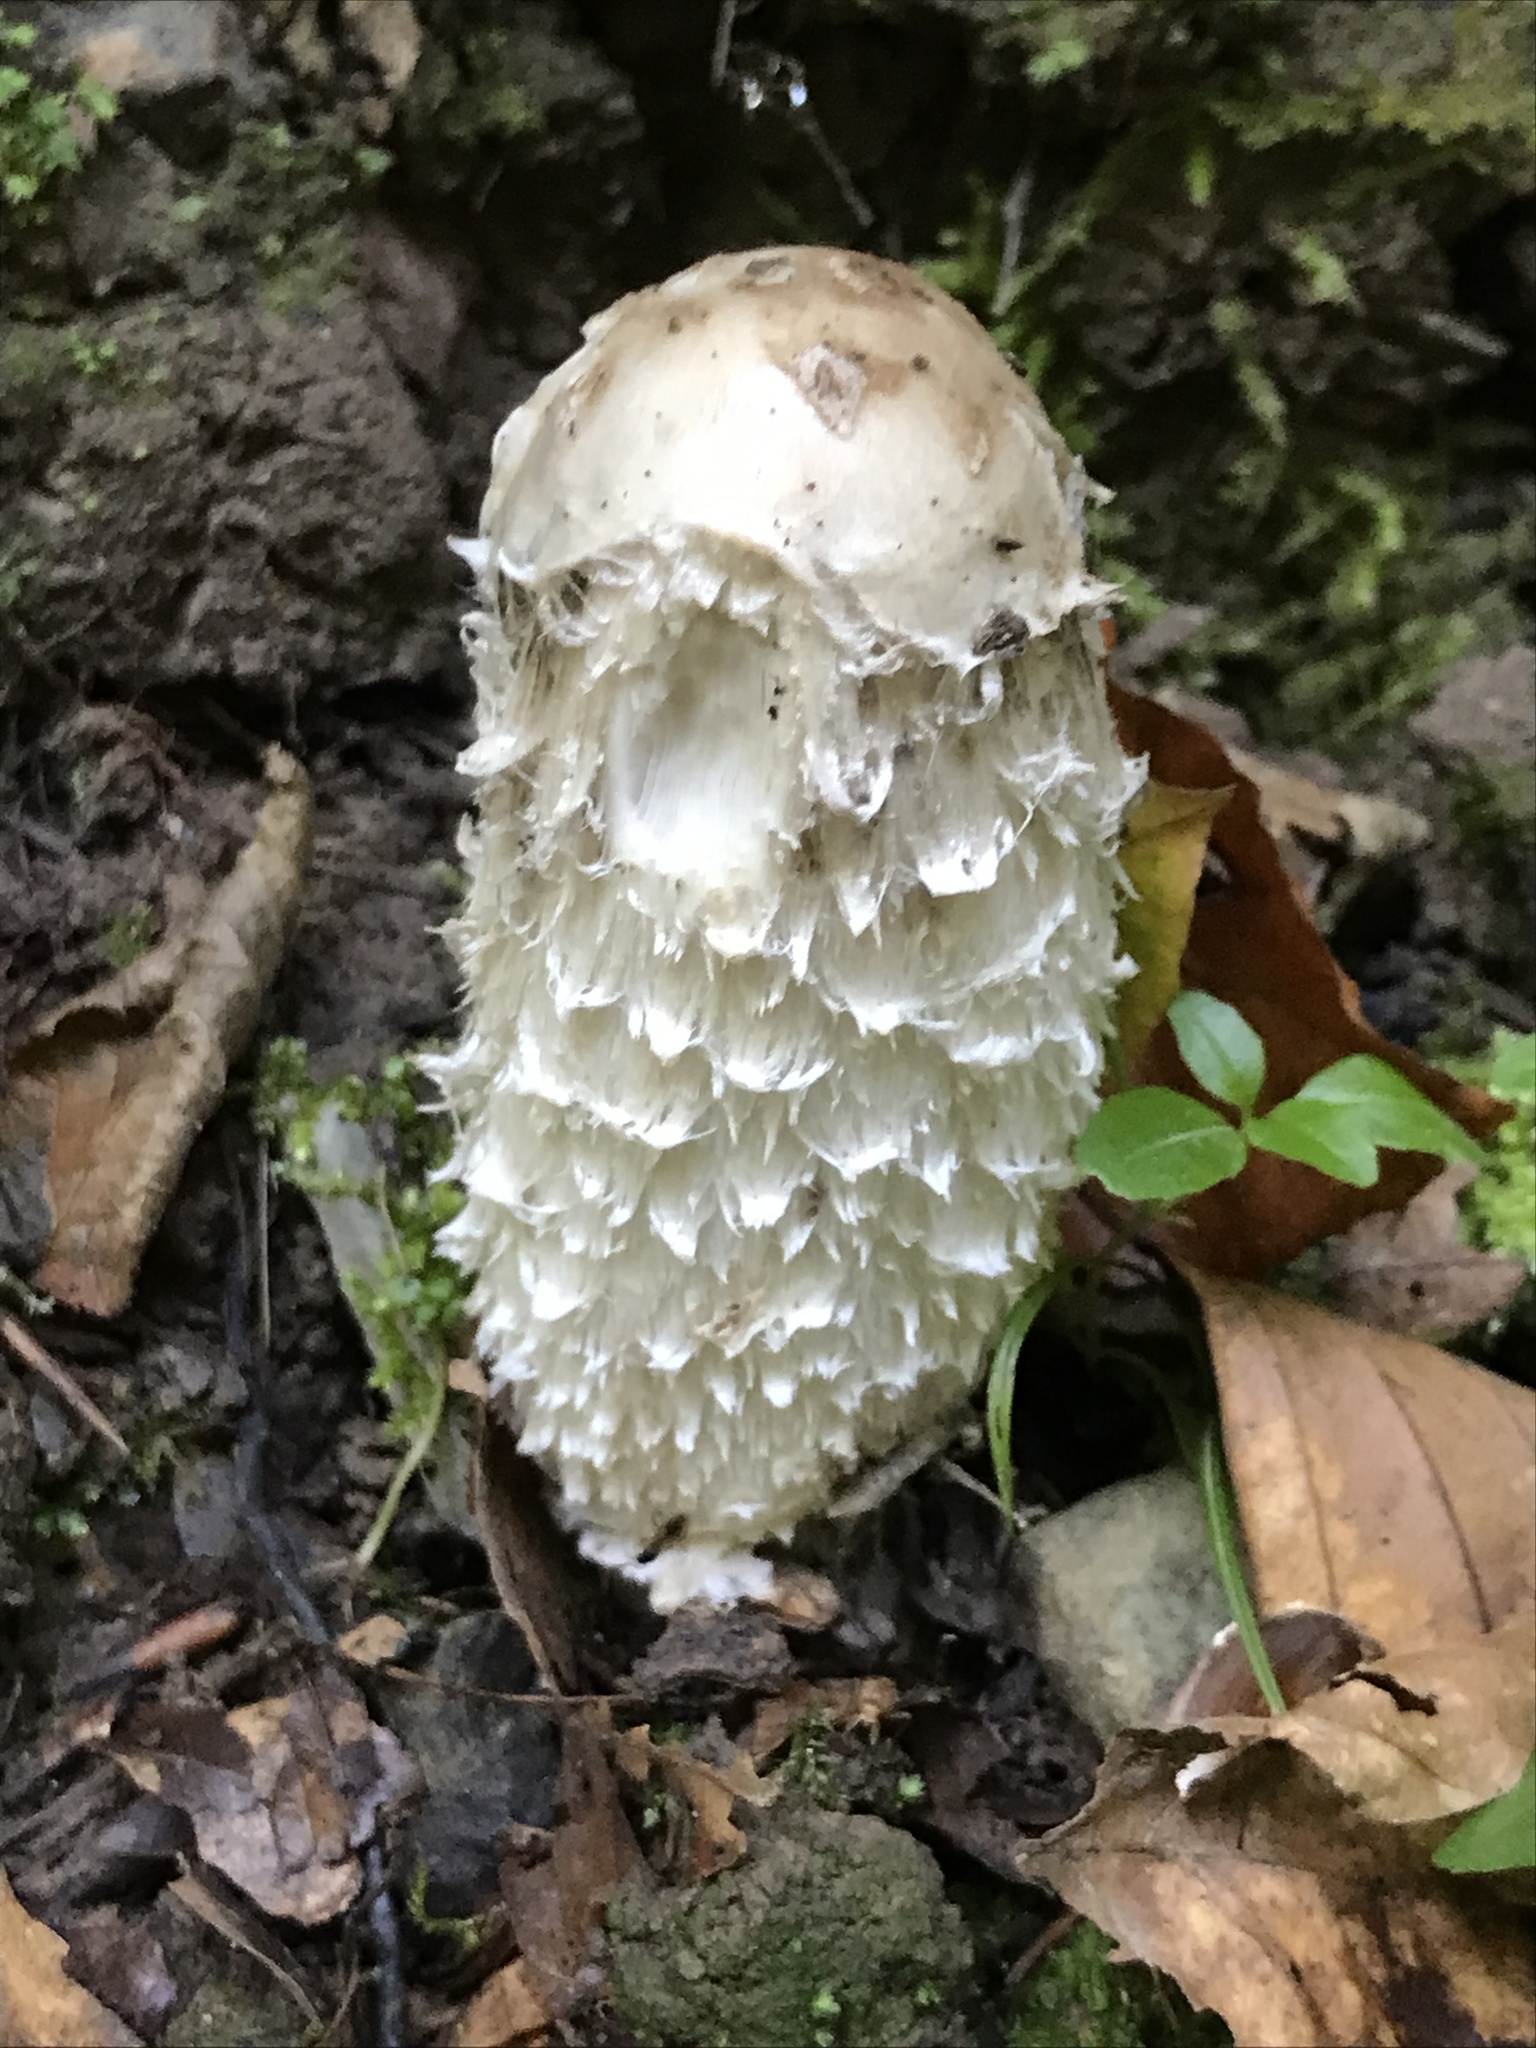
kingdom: Fungi
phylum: Basidiomycota
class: Agaricomycetes
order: Agaricales
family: Agaricaceae
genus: Coprinus
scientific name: Coprinus comatus
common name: Lawyer's wig
